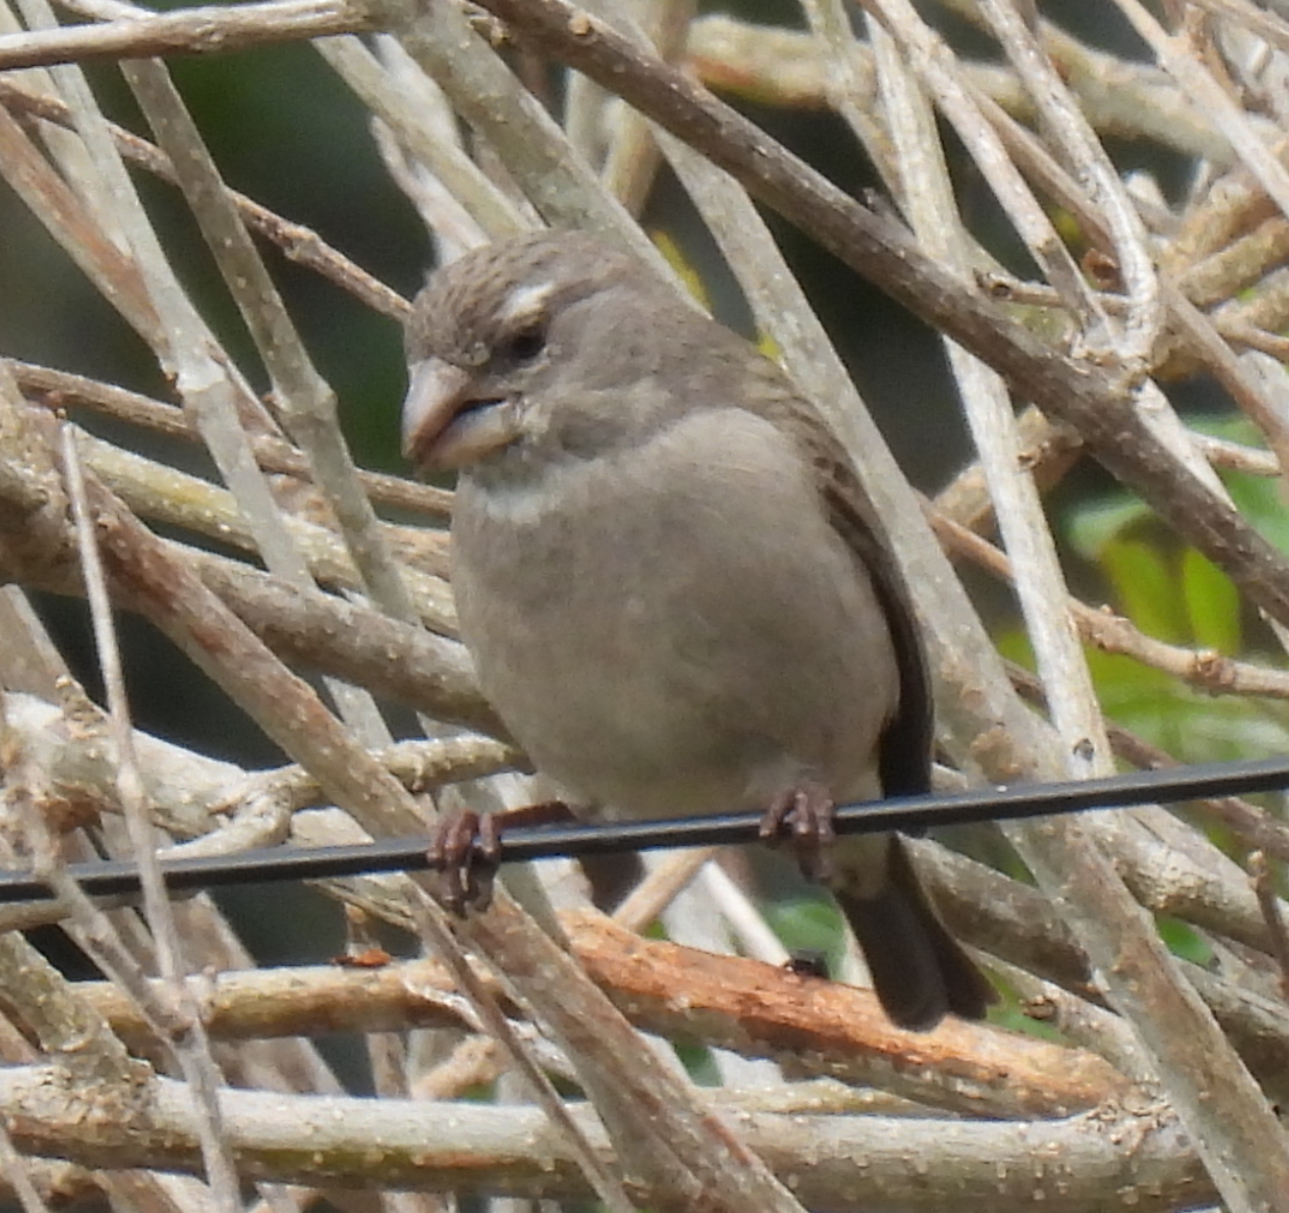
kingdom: Animalia
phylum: Chordata
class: Aves
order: Passeriformes
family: Fringillidae
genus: Crithagra
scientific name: Crithagra albogularis
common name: White-throated canary
